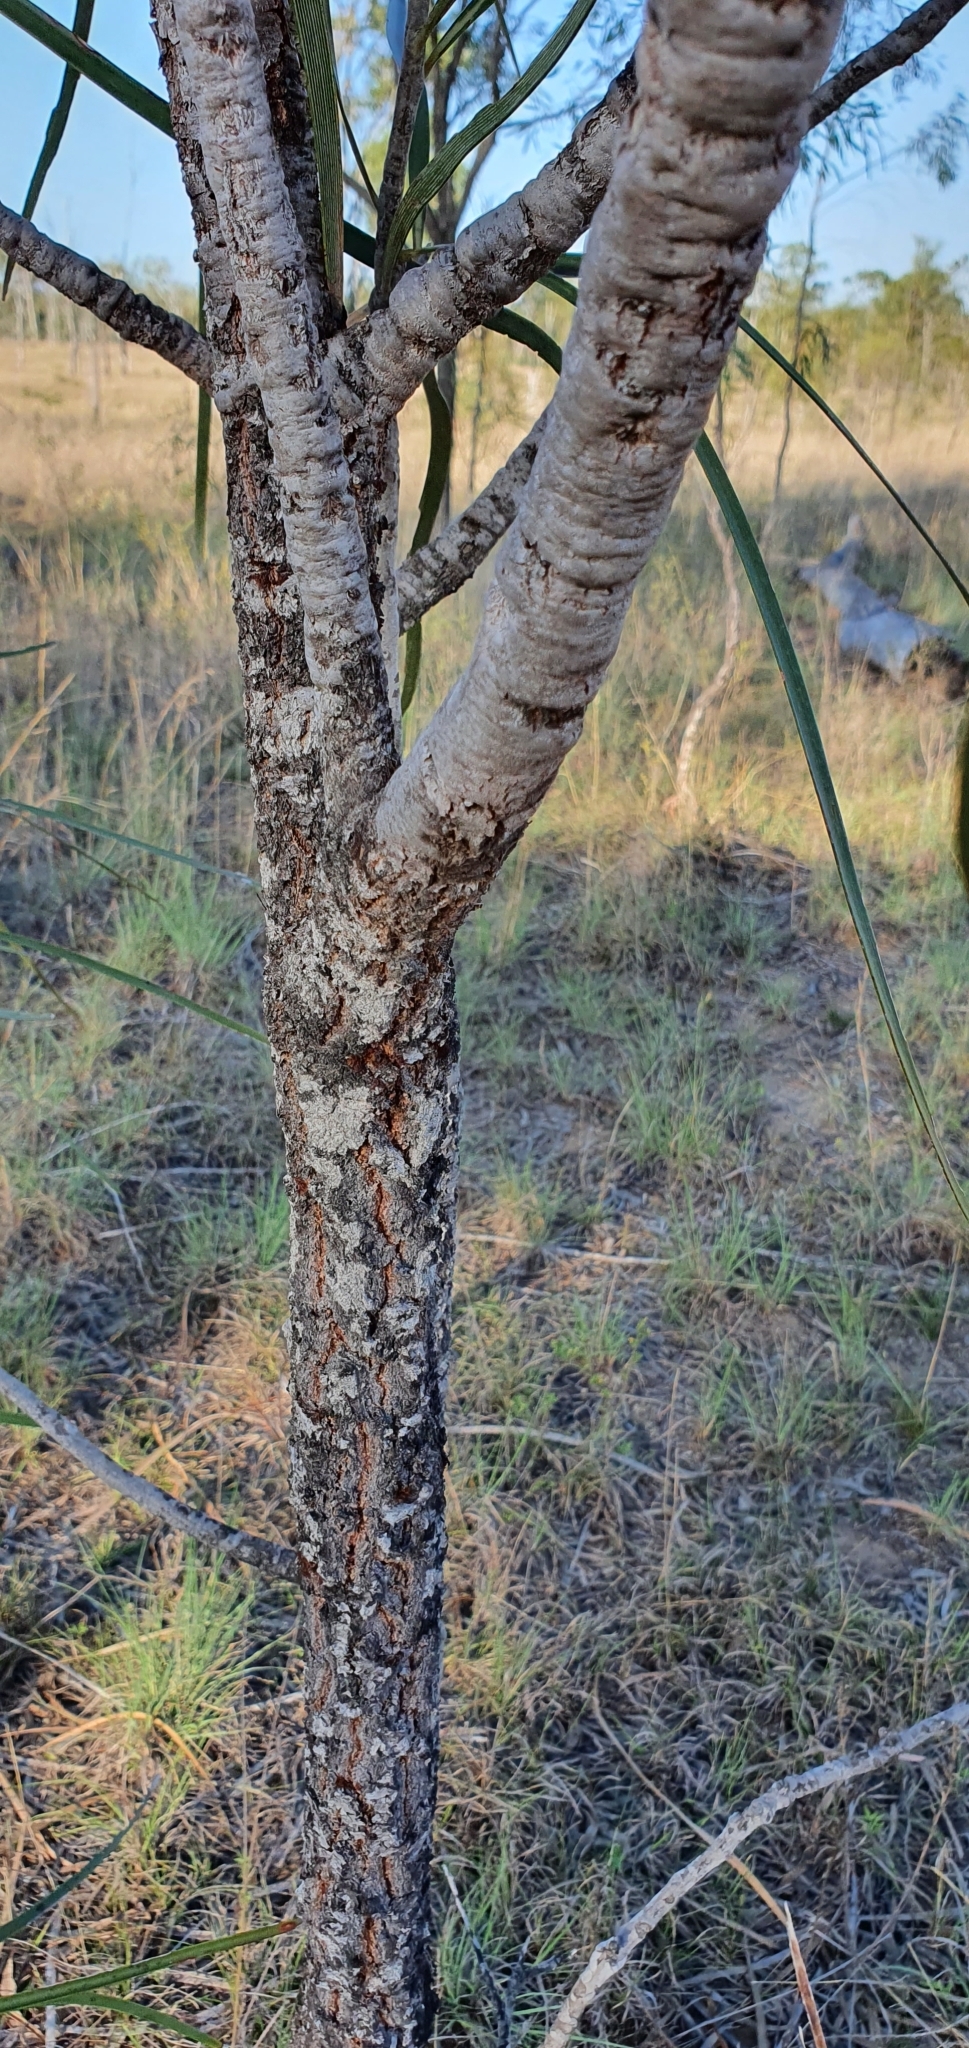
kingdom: Plantae
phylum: Tracheophyta
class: Magnoliopsida
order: Proteales
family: Proteaceae
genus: Grevillea
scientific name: Grevillea striata
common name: Beefwood
